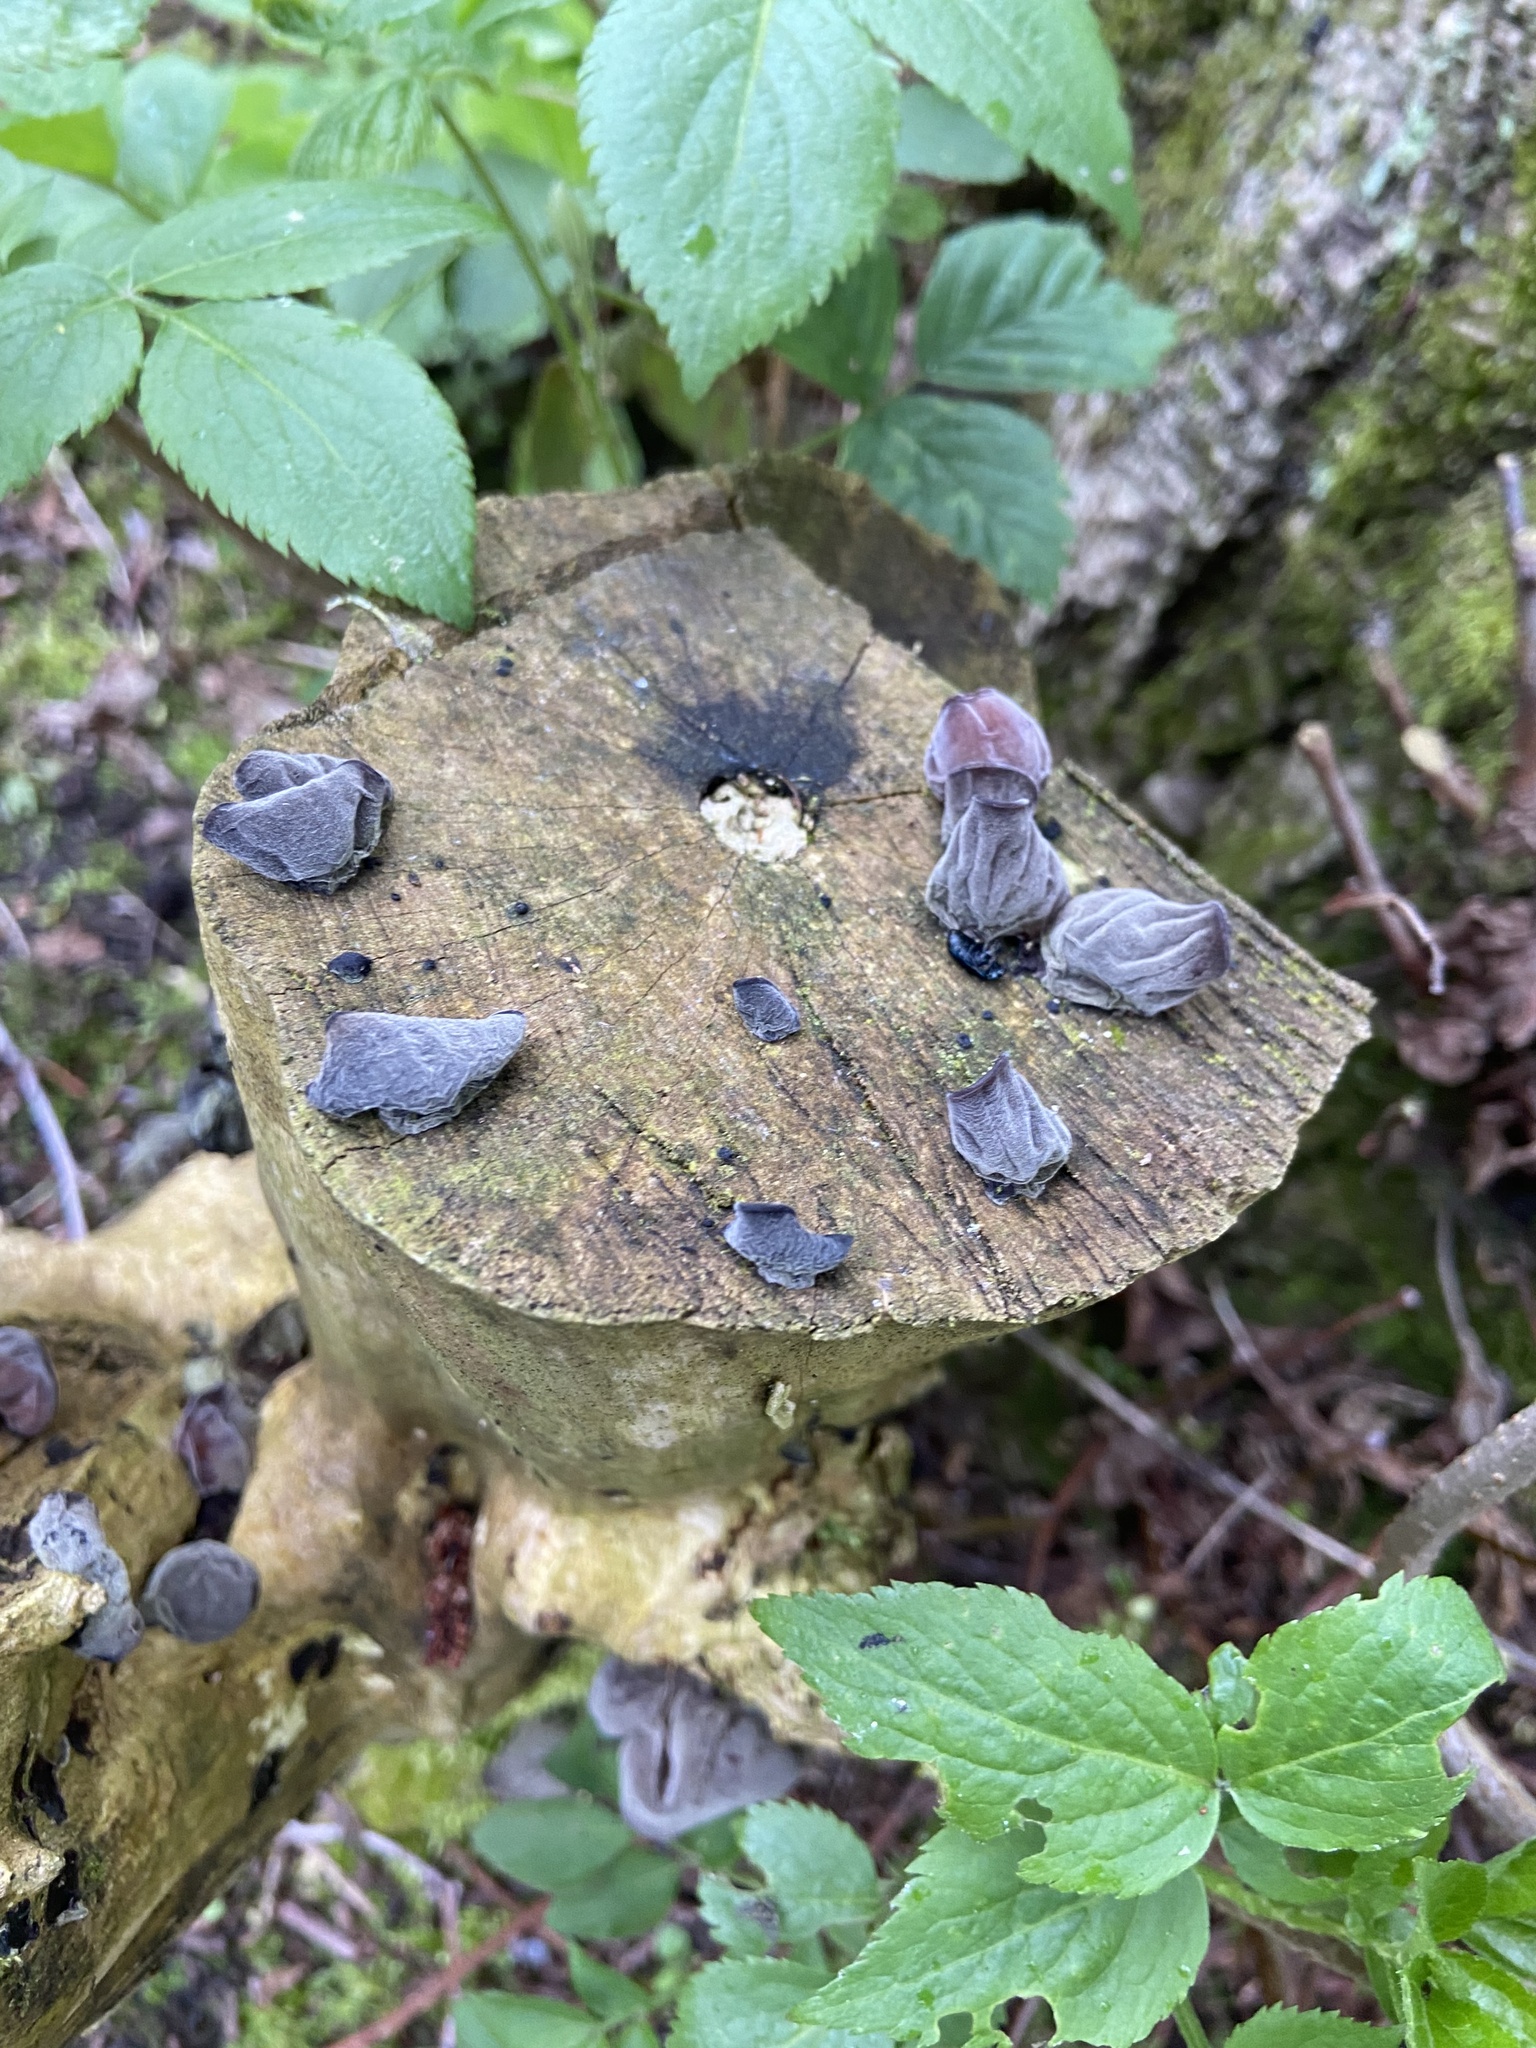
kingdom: Fungi
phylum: Basidiomycota
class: Agaricomycetes
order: Auriculariales
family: Auriculariaceae
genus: Auricularia
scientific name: Auricularia auricula-judae
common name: Jelly ear
